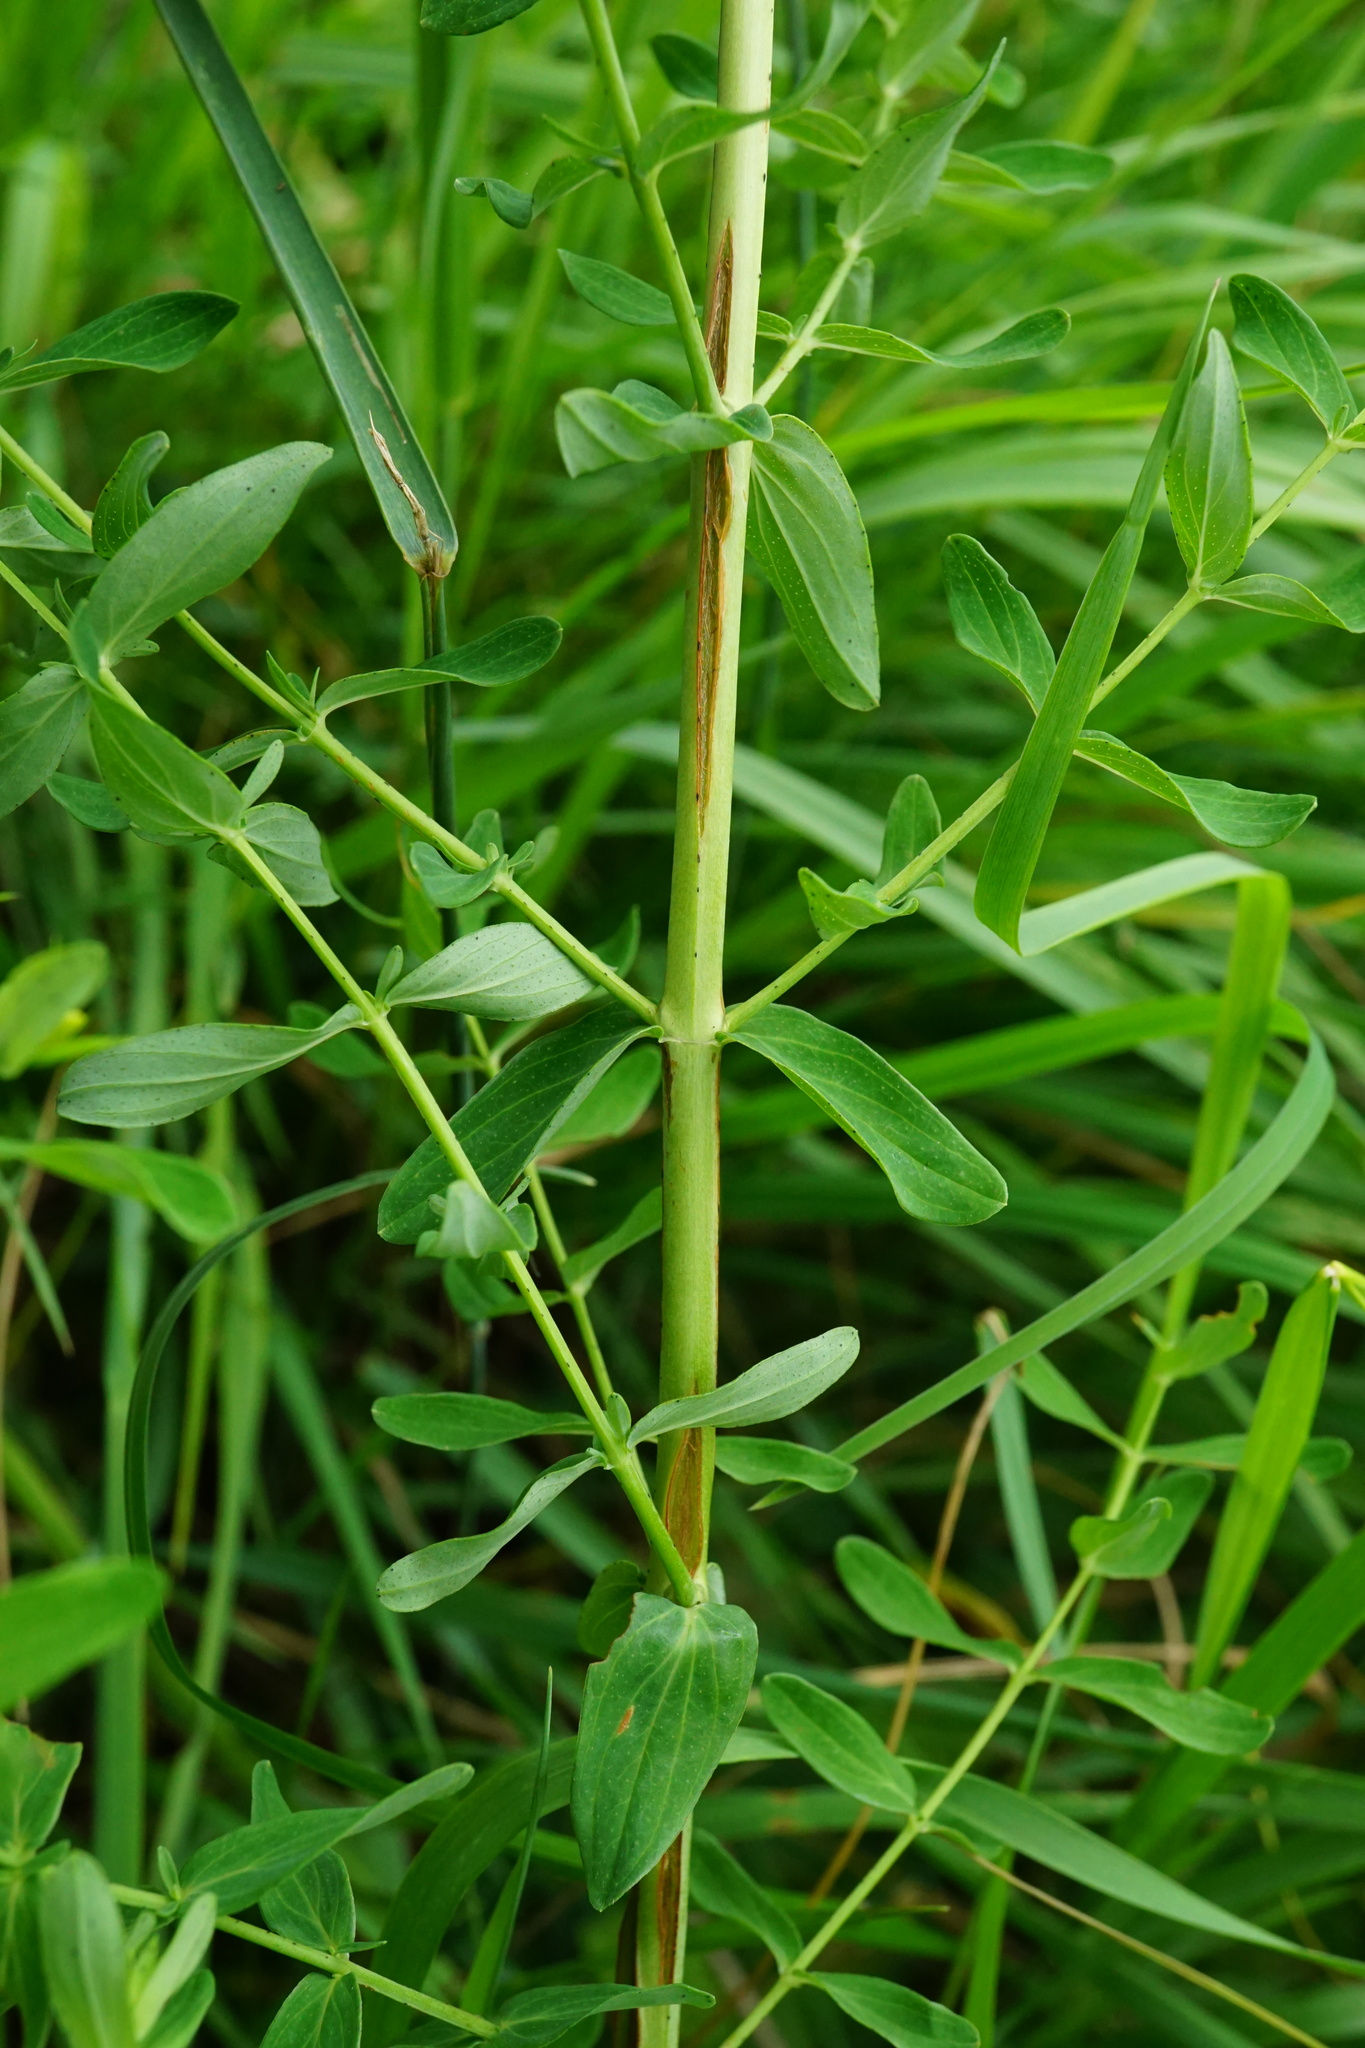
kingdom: Plantae
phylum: Tracheophyta
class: Magnoliopsida
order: Malpighiales
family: Hypericaceae
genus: Hypericum
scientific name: Hypericum perforatum
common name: Common st. johnswort
